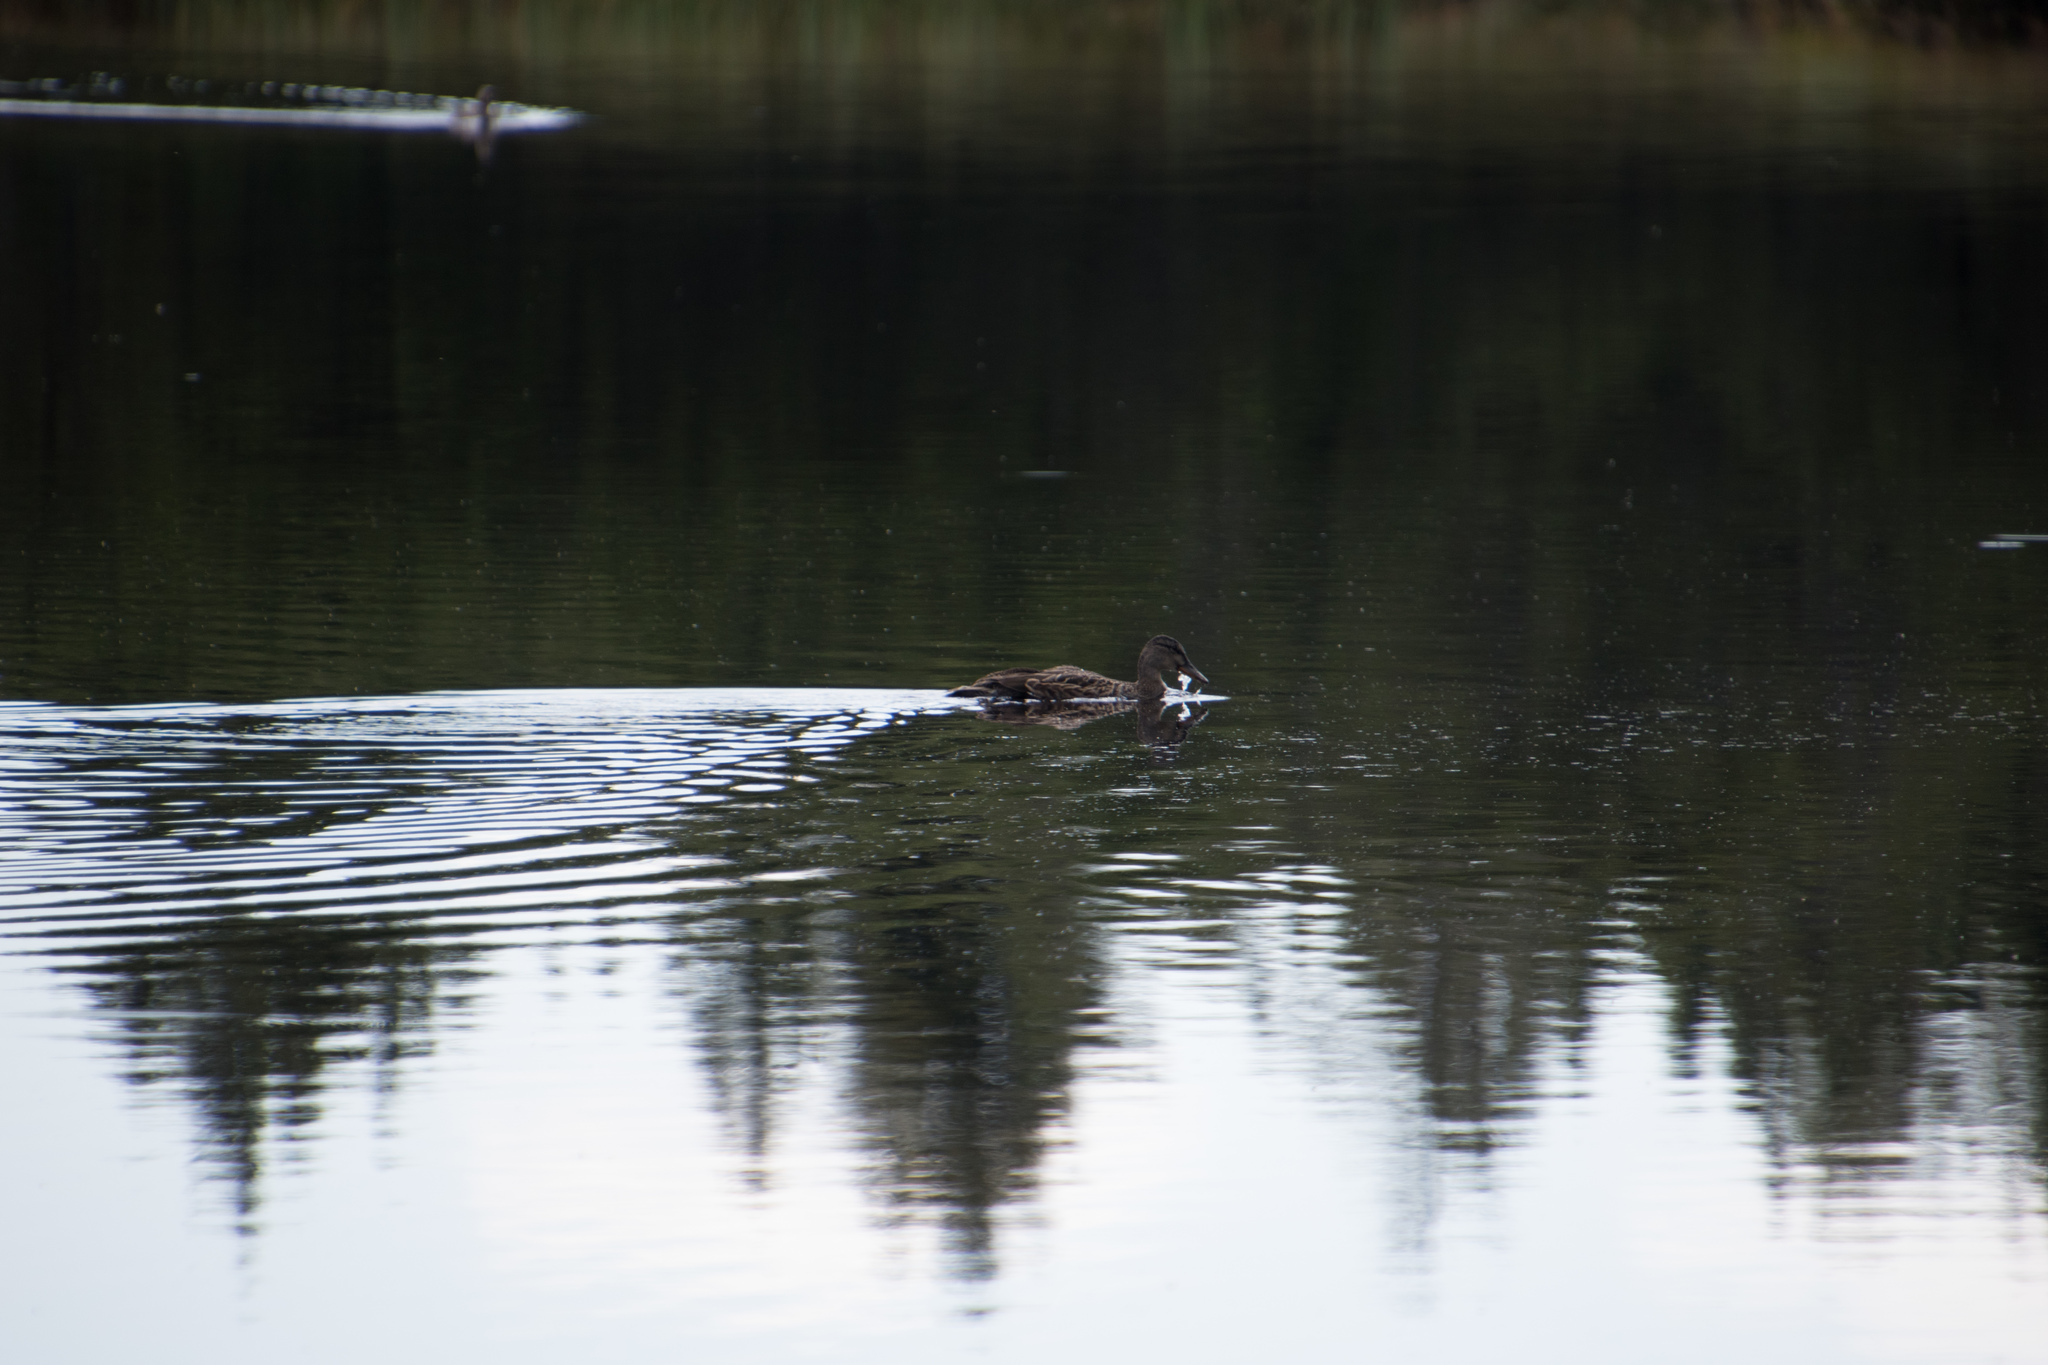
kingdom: Animalia
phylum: Chordata
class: Aves
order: Anseriformes
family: Anatidae
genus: Anas
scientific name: Anas platyrhynchos
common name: Mallard
